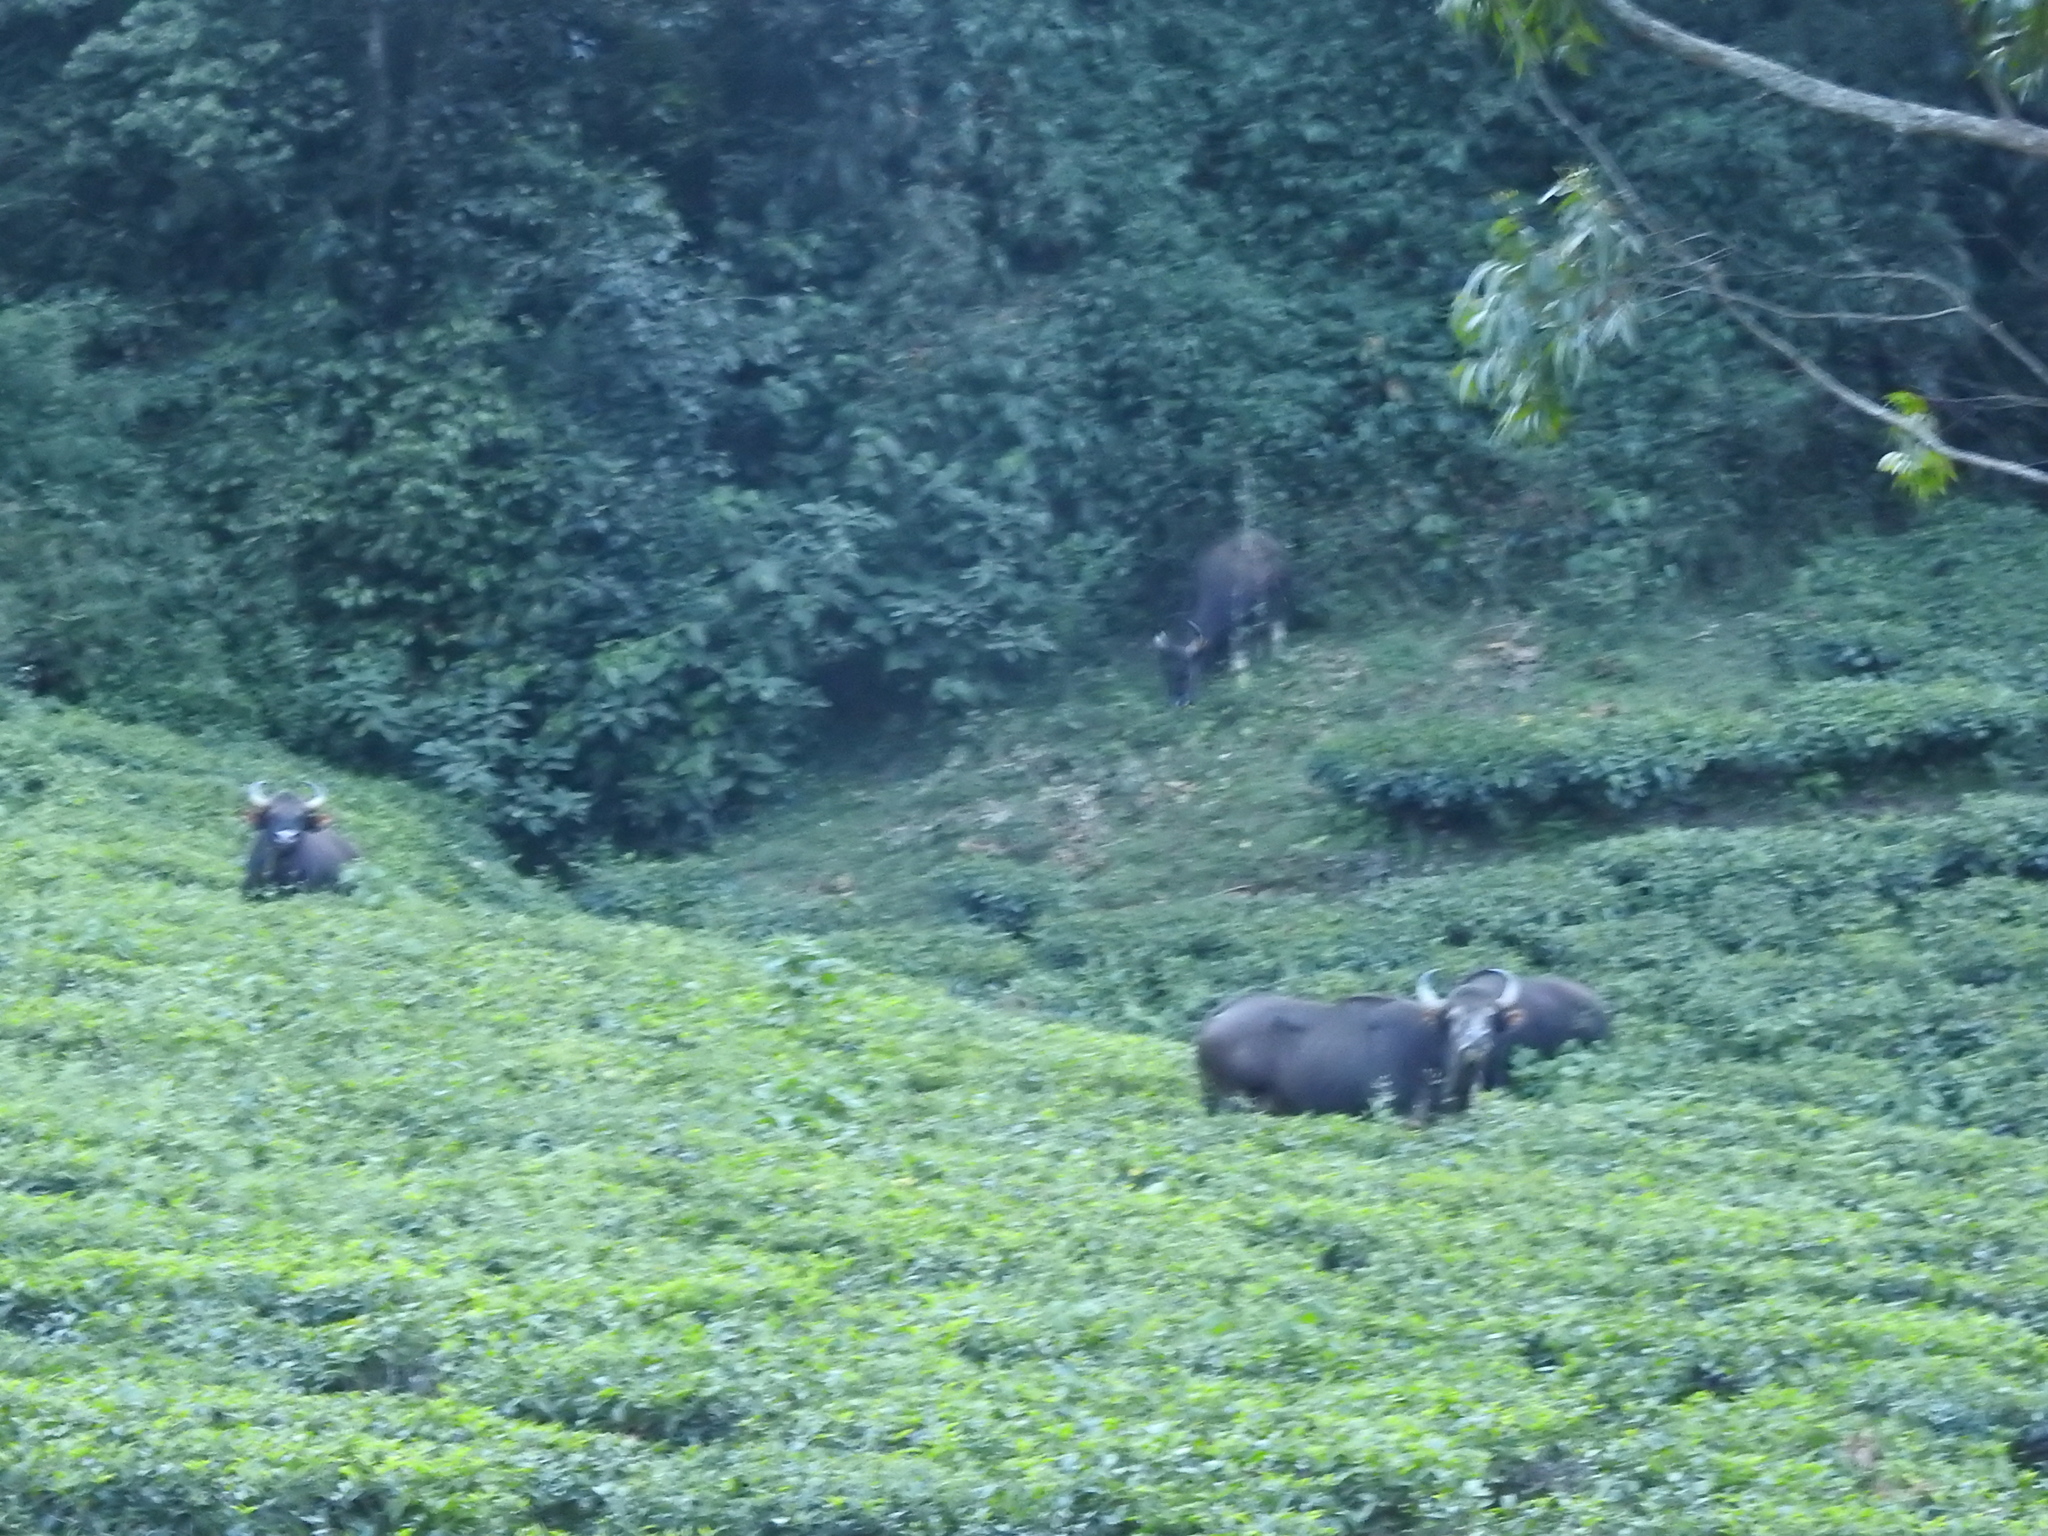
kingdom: Animalia
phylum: Chordata
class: Mammalia
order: Artiodactyla
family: Bovidae
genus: Bos
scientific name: Bos frontalis
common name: Gaur
